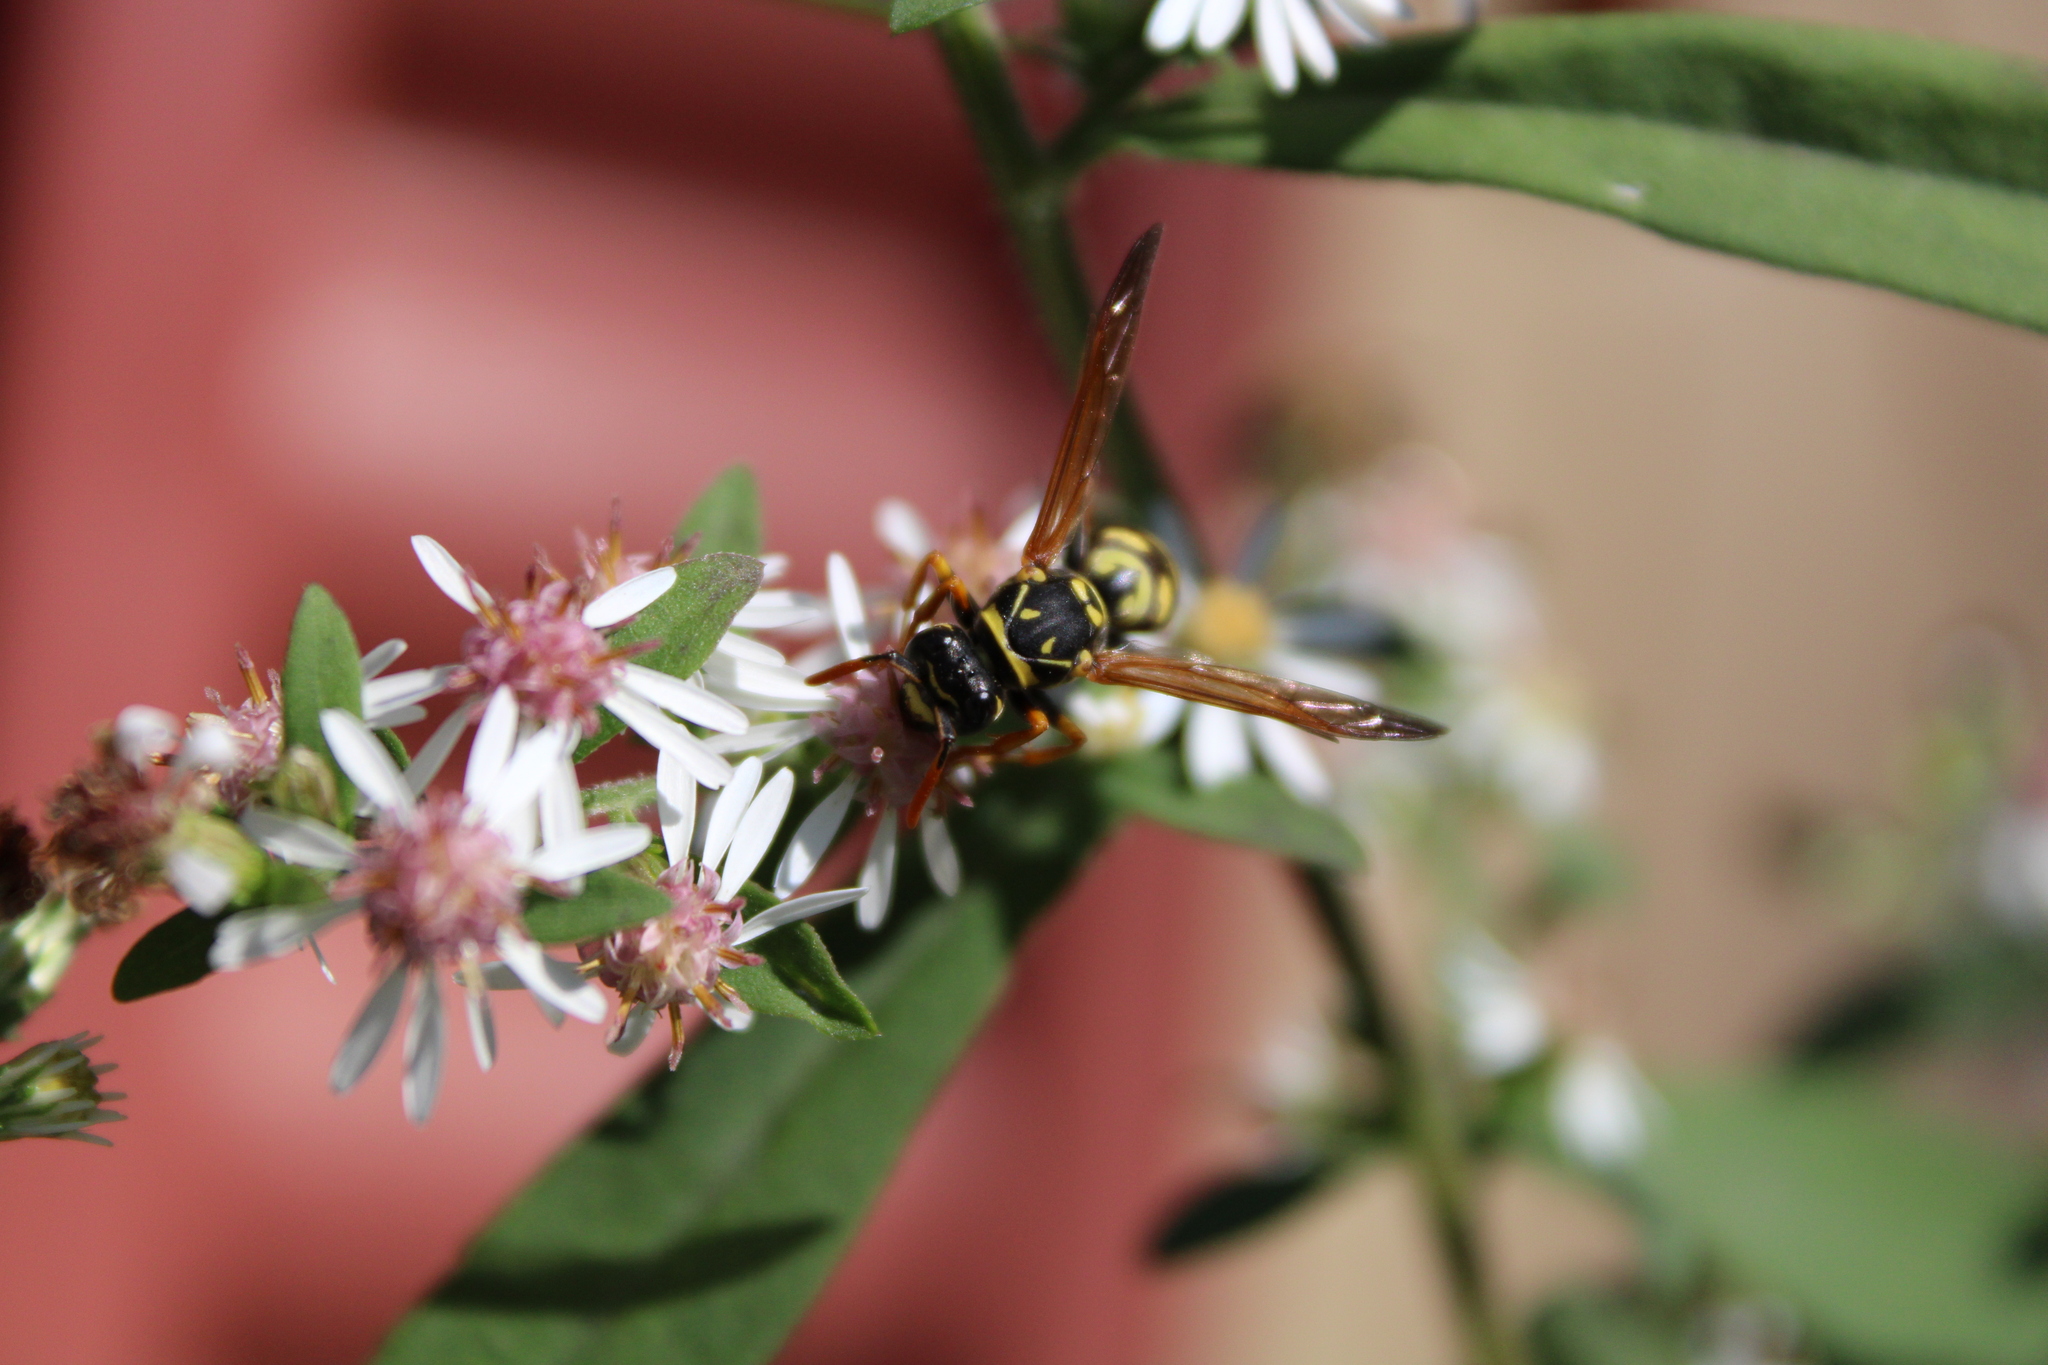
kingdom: Animalia
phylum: Arthropoda
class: Insecta
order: Hymenoptera
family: Eumenidae
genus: Polistes
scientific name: Polistes dominula
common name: Paper wasp
